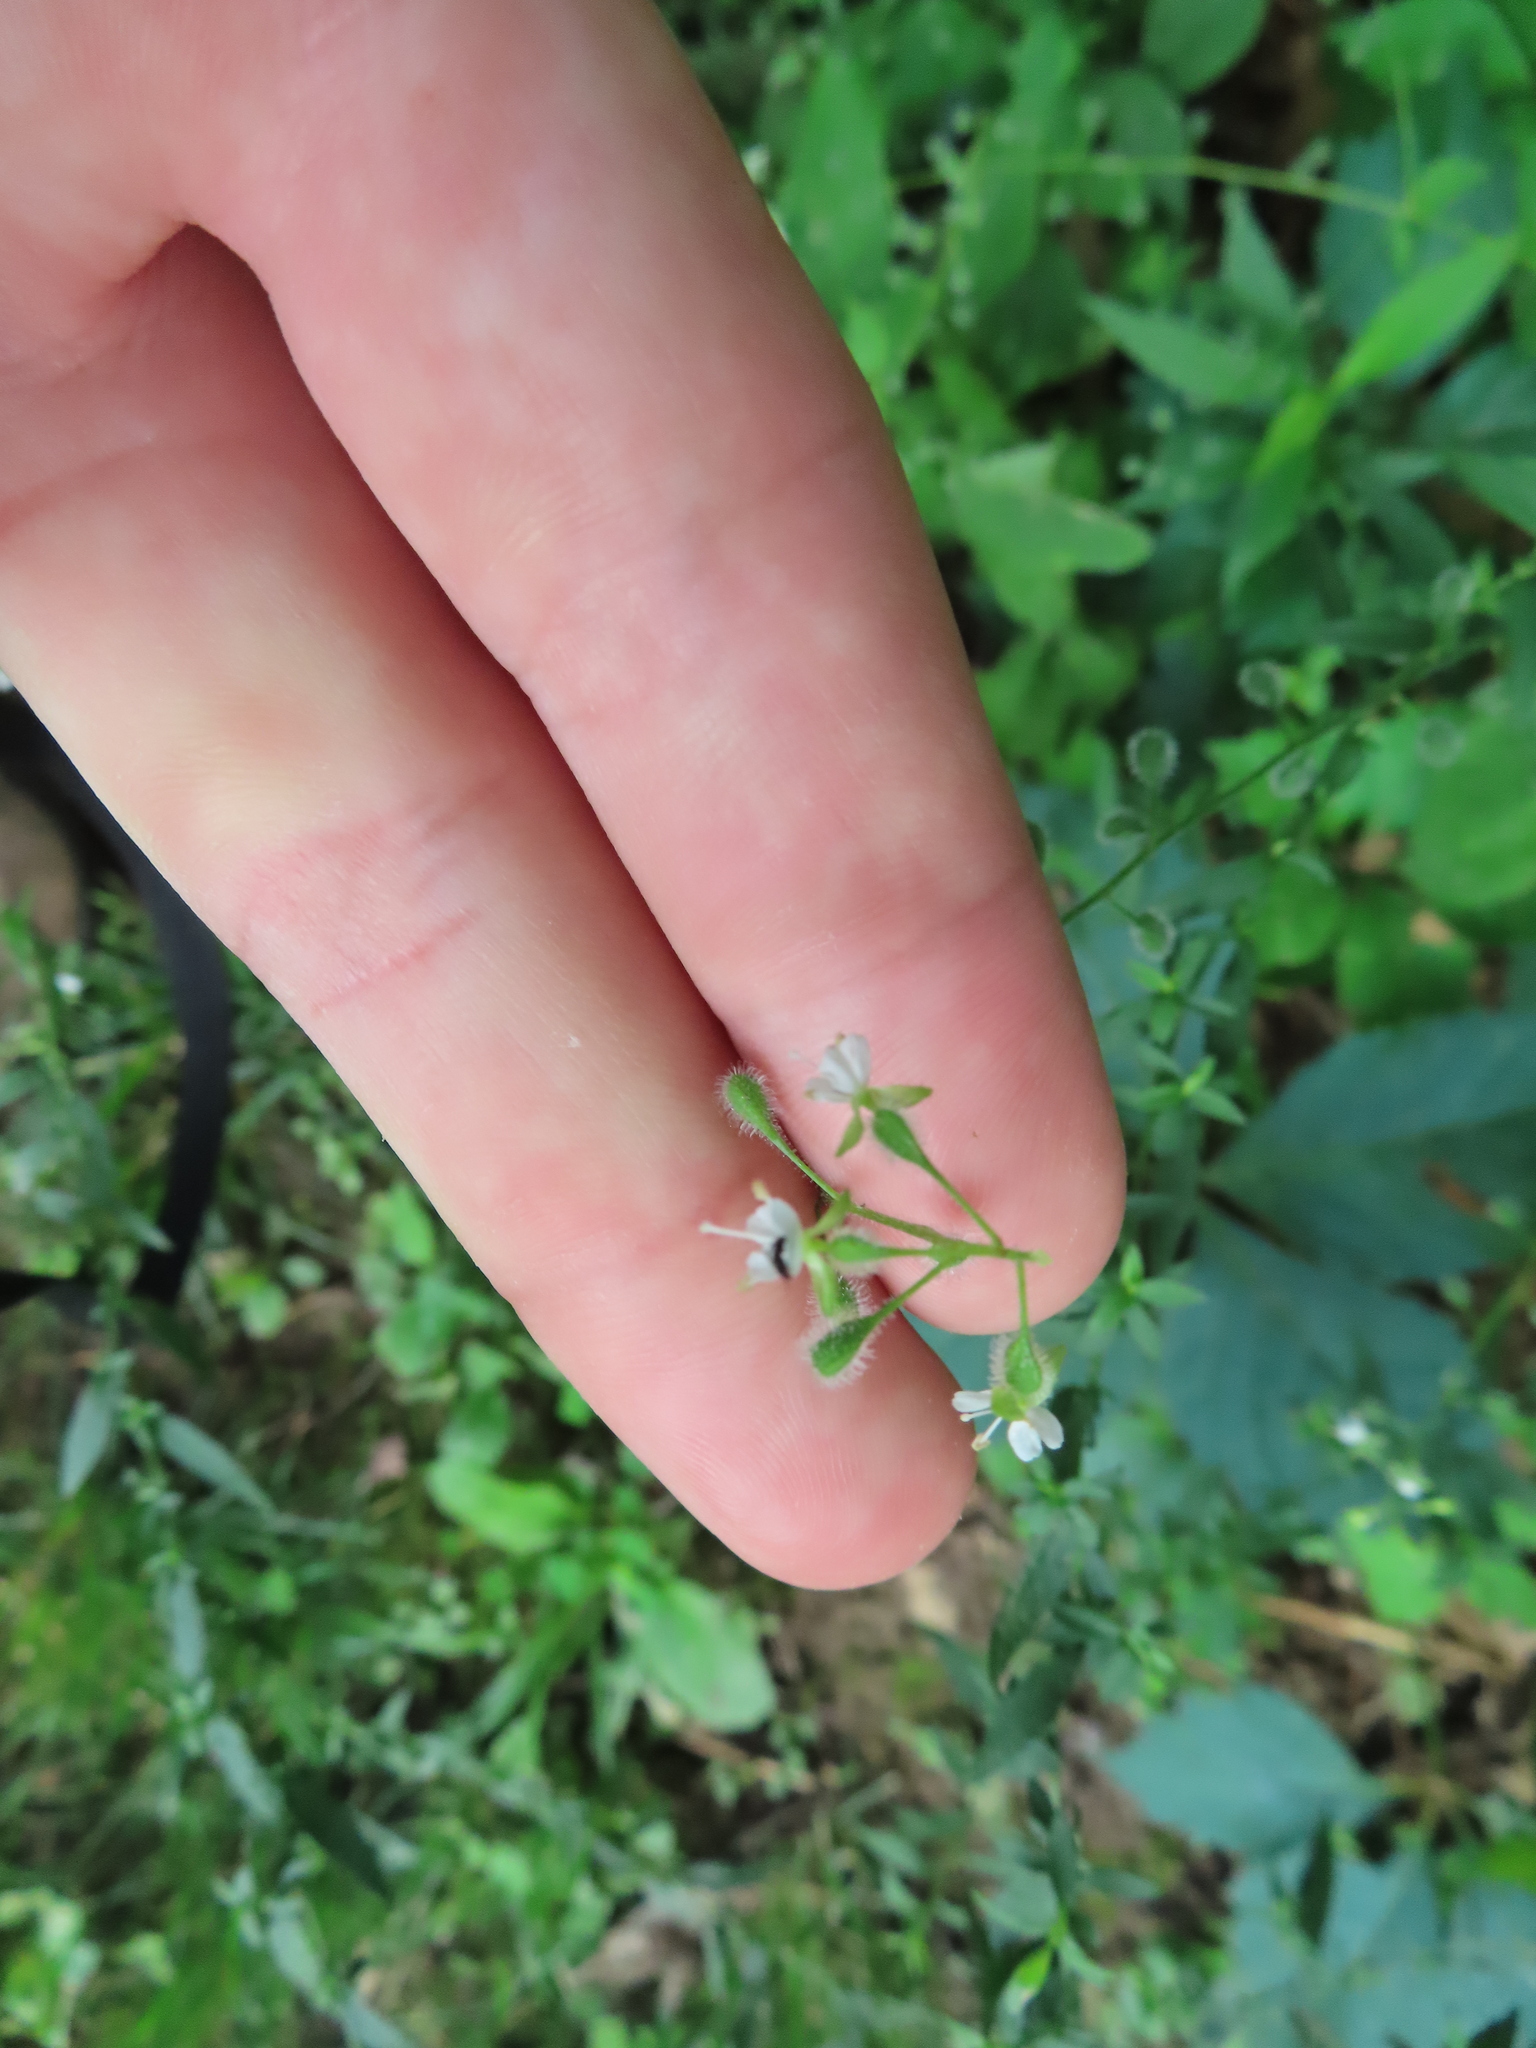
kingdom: Plantae
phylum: Tracheophyta
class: Magnoliopsida
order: Myrtales
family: Onagraceae
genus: Circaea
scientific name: Circaea canadensis
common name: Broad-leaved enchanter's nightshade
